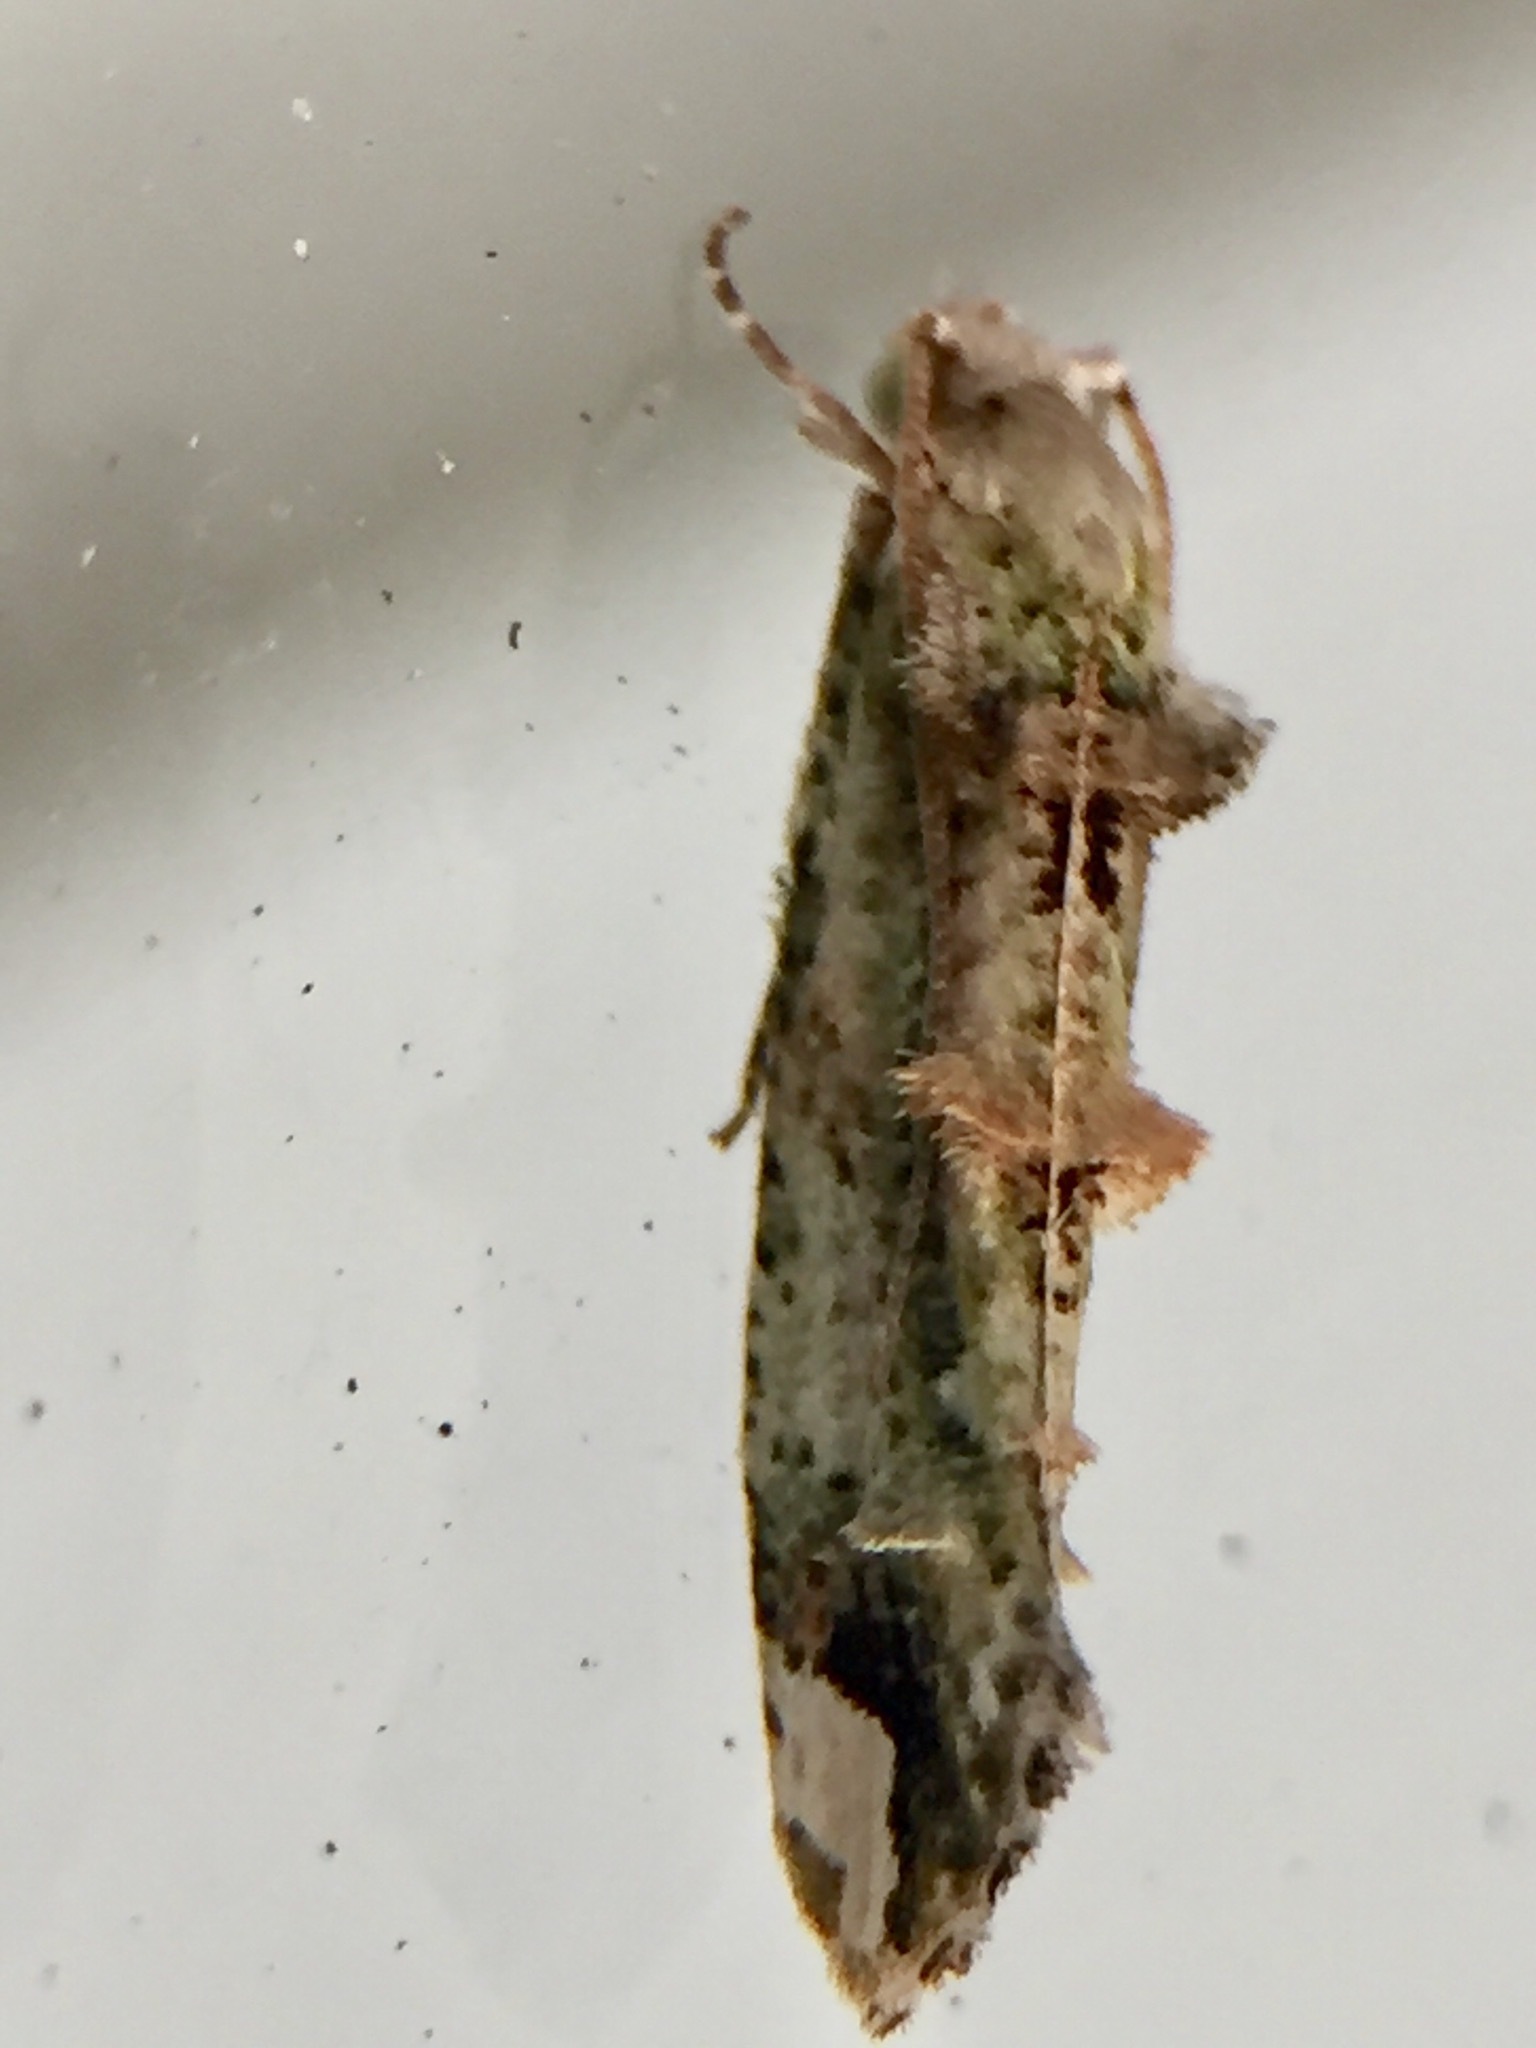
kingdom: Animalia
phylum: Arthropoda
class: Insecta
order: Lepidoptera
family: Tineidae
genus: Lysiphragma
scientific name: Lysiphragma mixochlora
